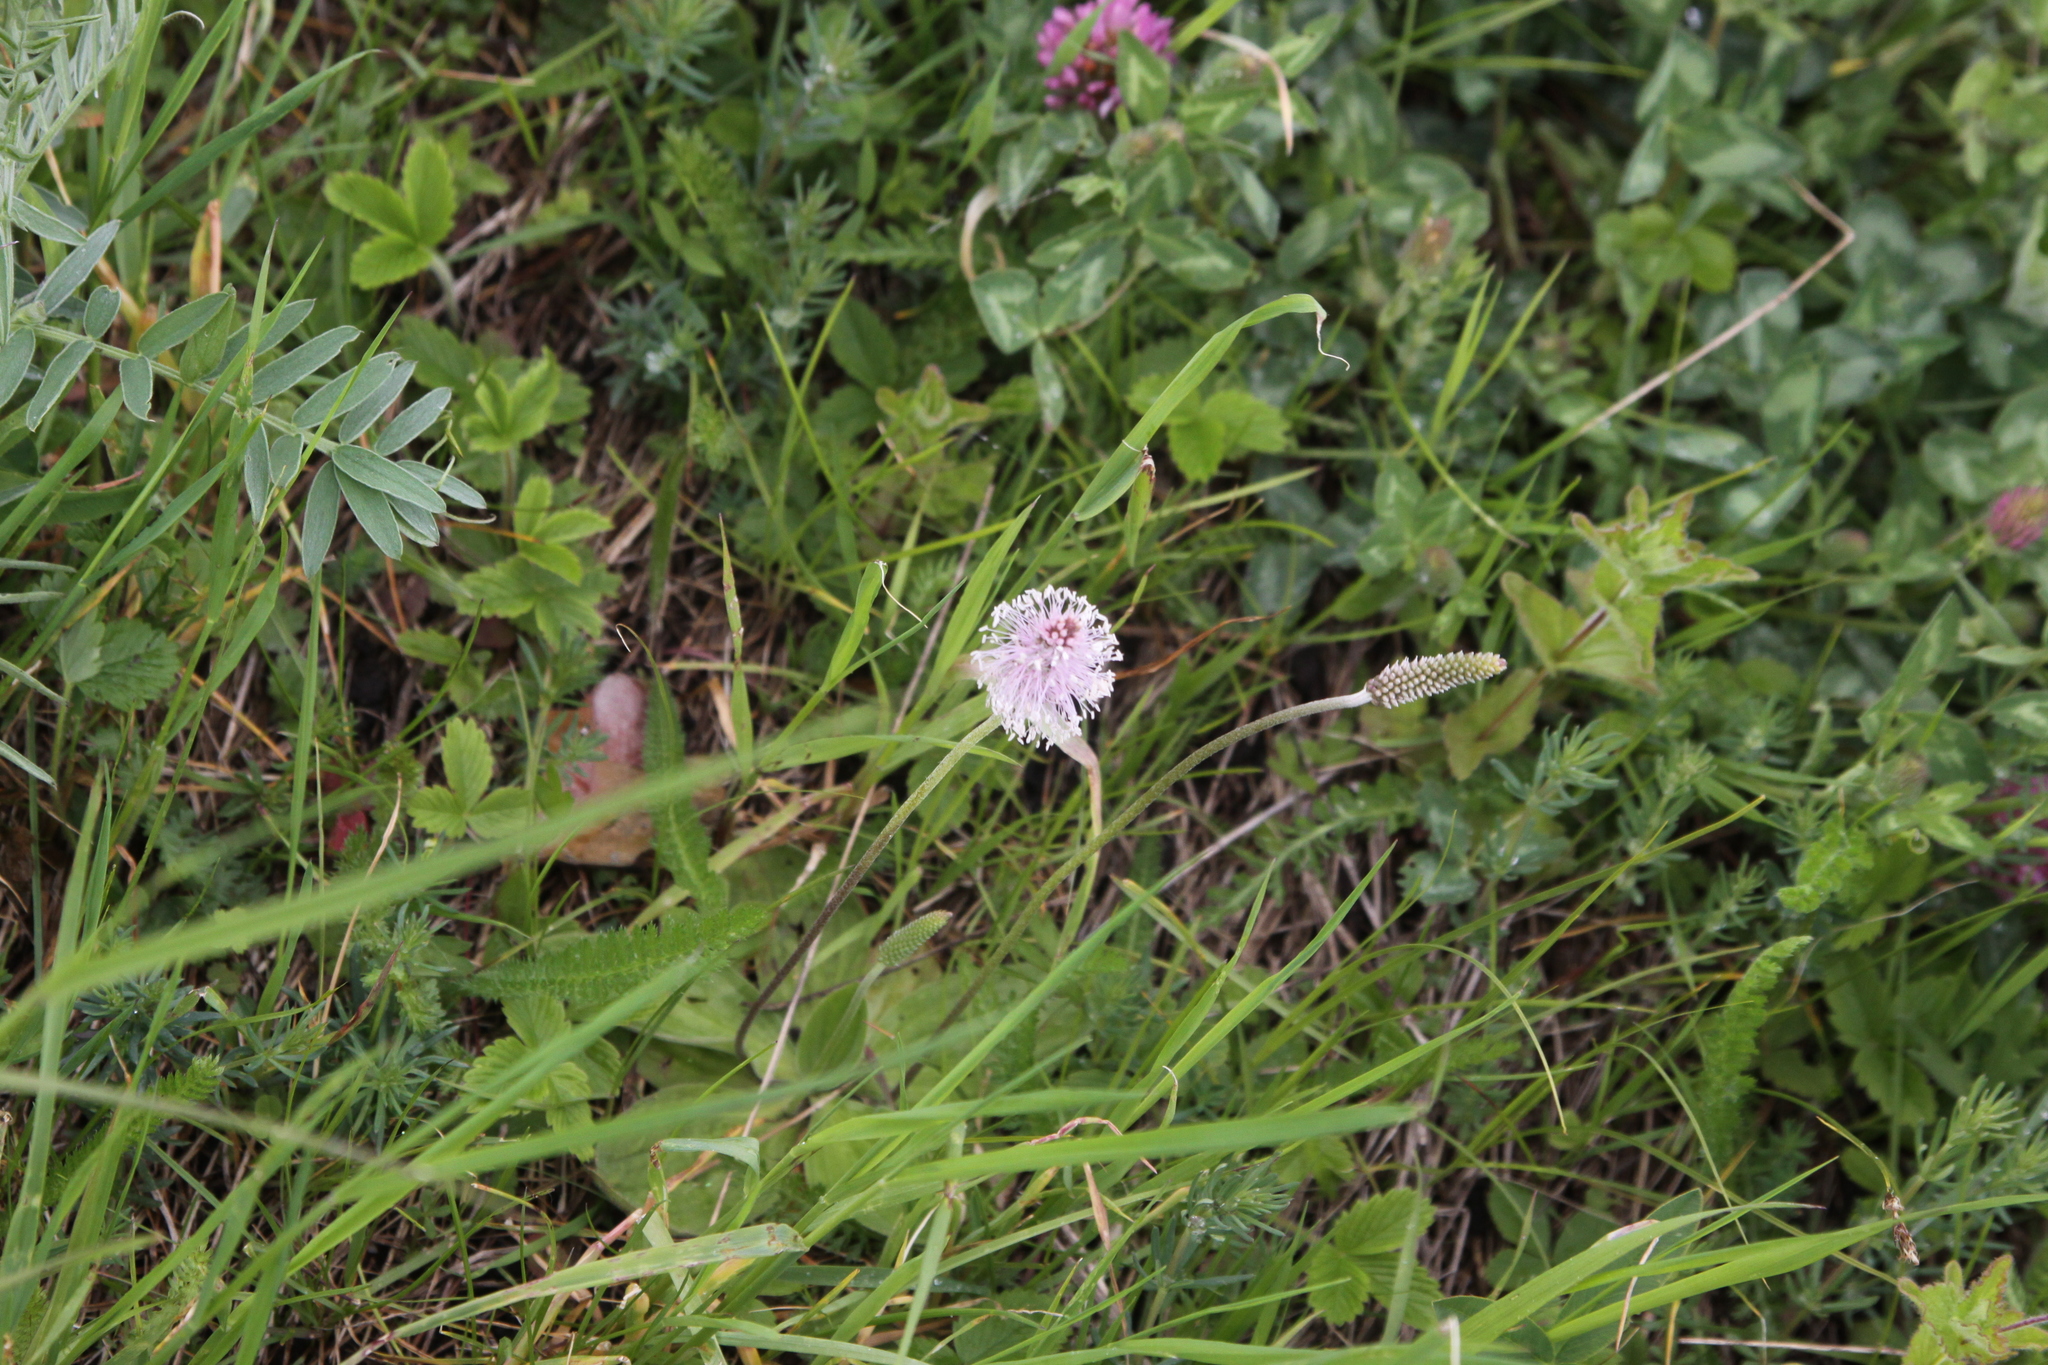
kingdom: Plantae
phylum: Tracheophyta
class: Magnoliopsida
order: Lamiales
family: Plantaginaceae
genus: Plantago
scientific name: Plantago media
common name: Hoary plantain
